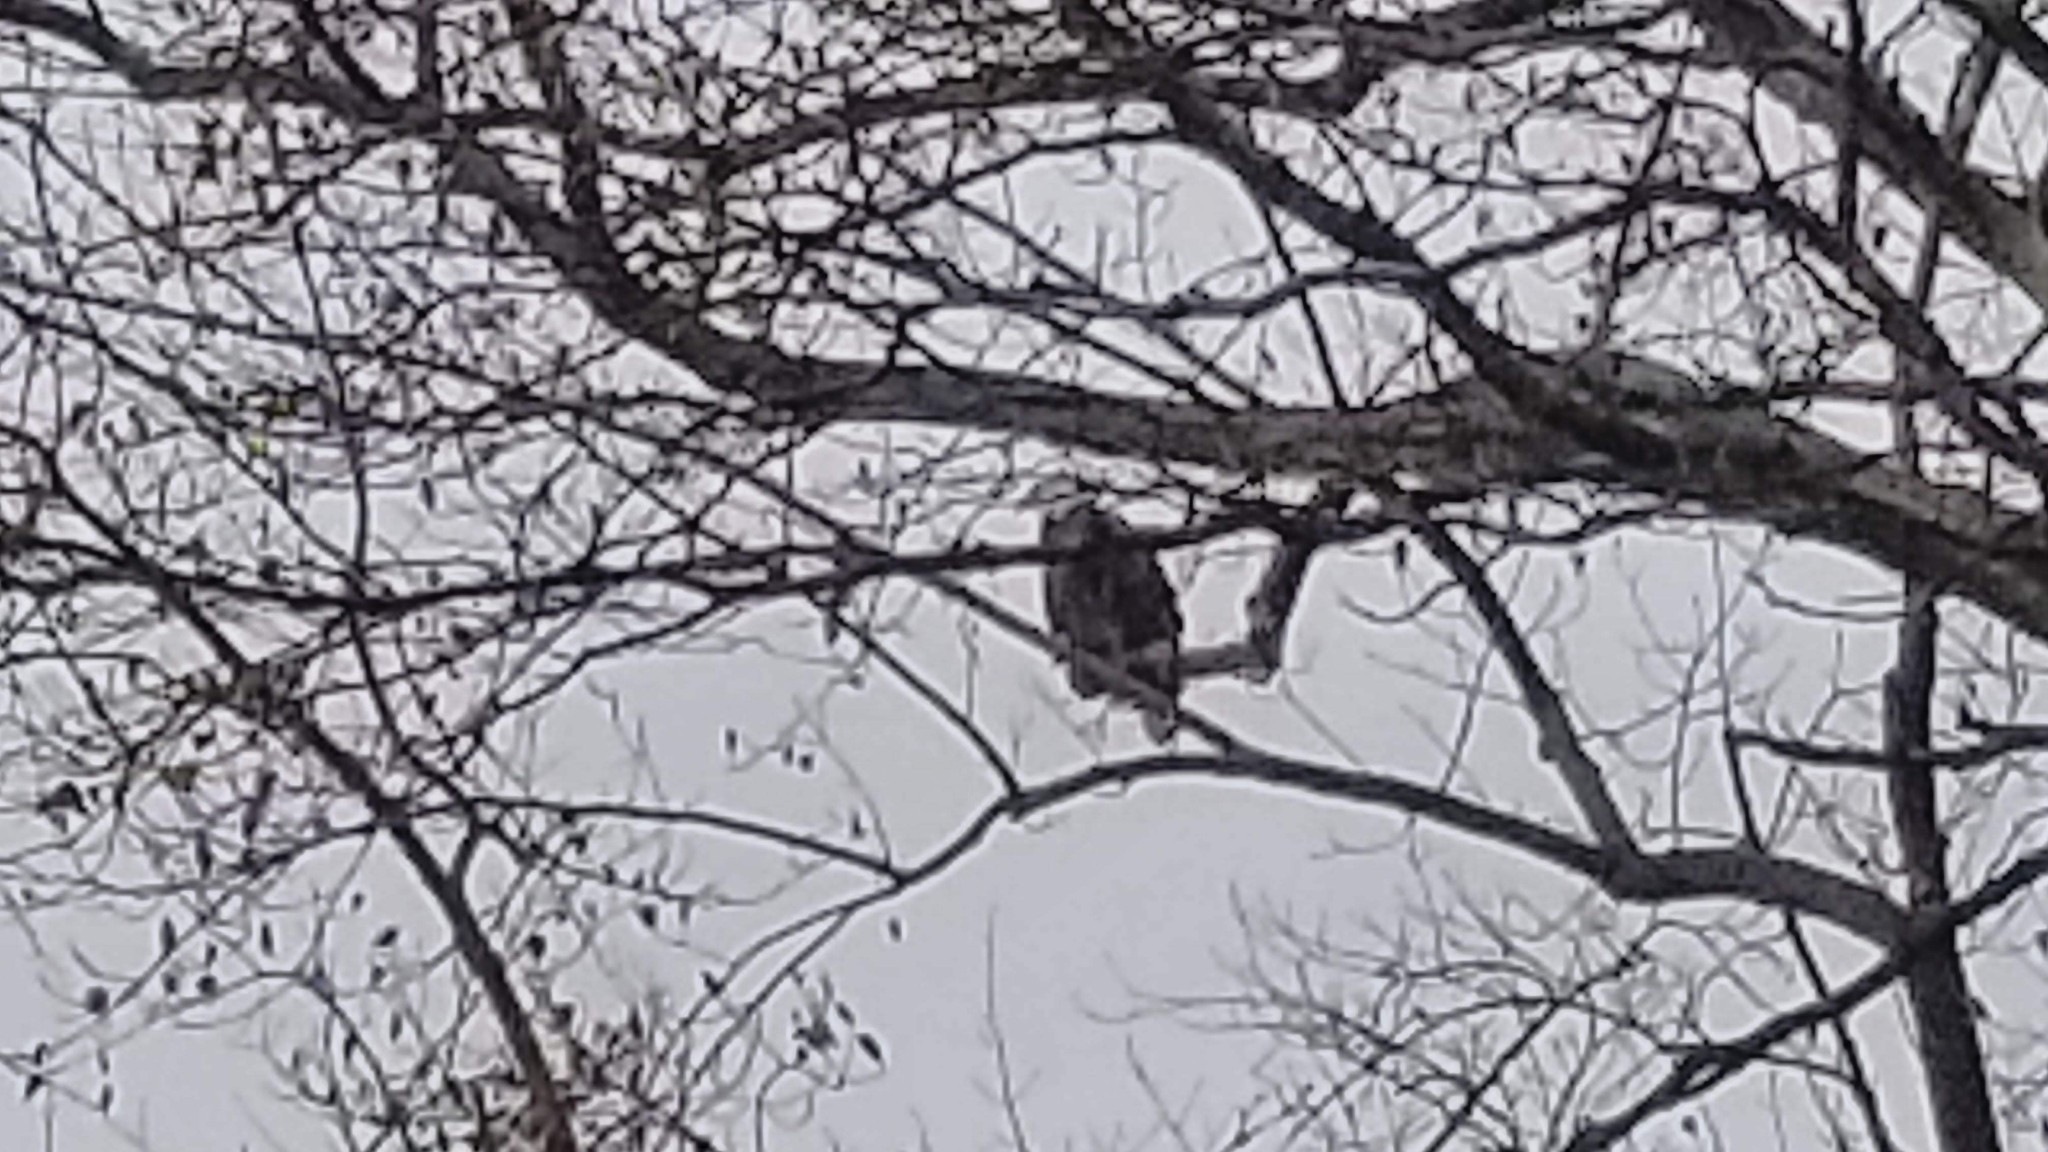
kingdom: Animalia
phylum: Chordata
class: Aves
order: Accipitriformes
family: Accipitridae
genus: Haliaeetus
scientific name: Haliaeetus leucocephalus
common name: Bald eagle
